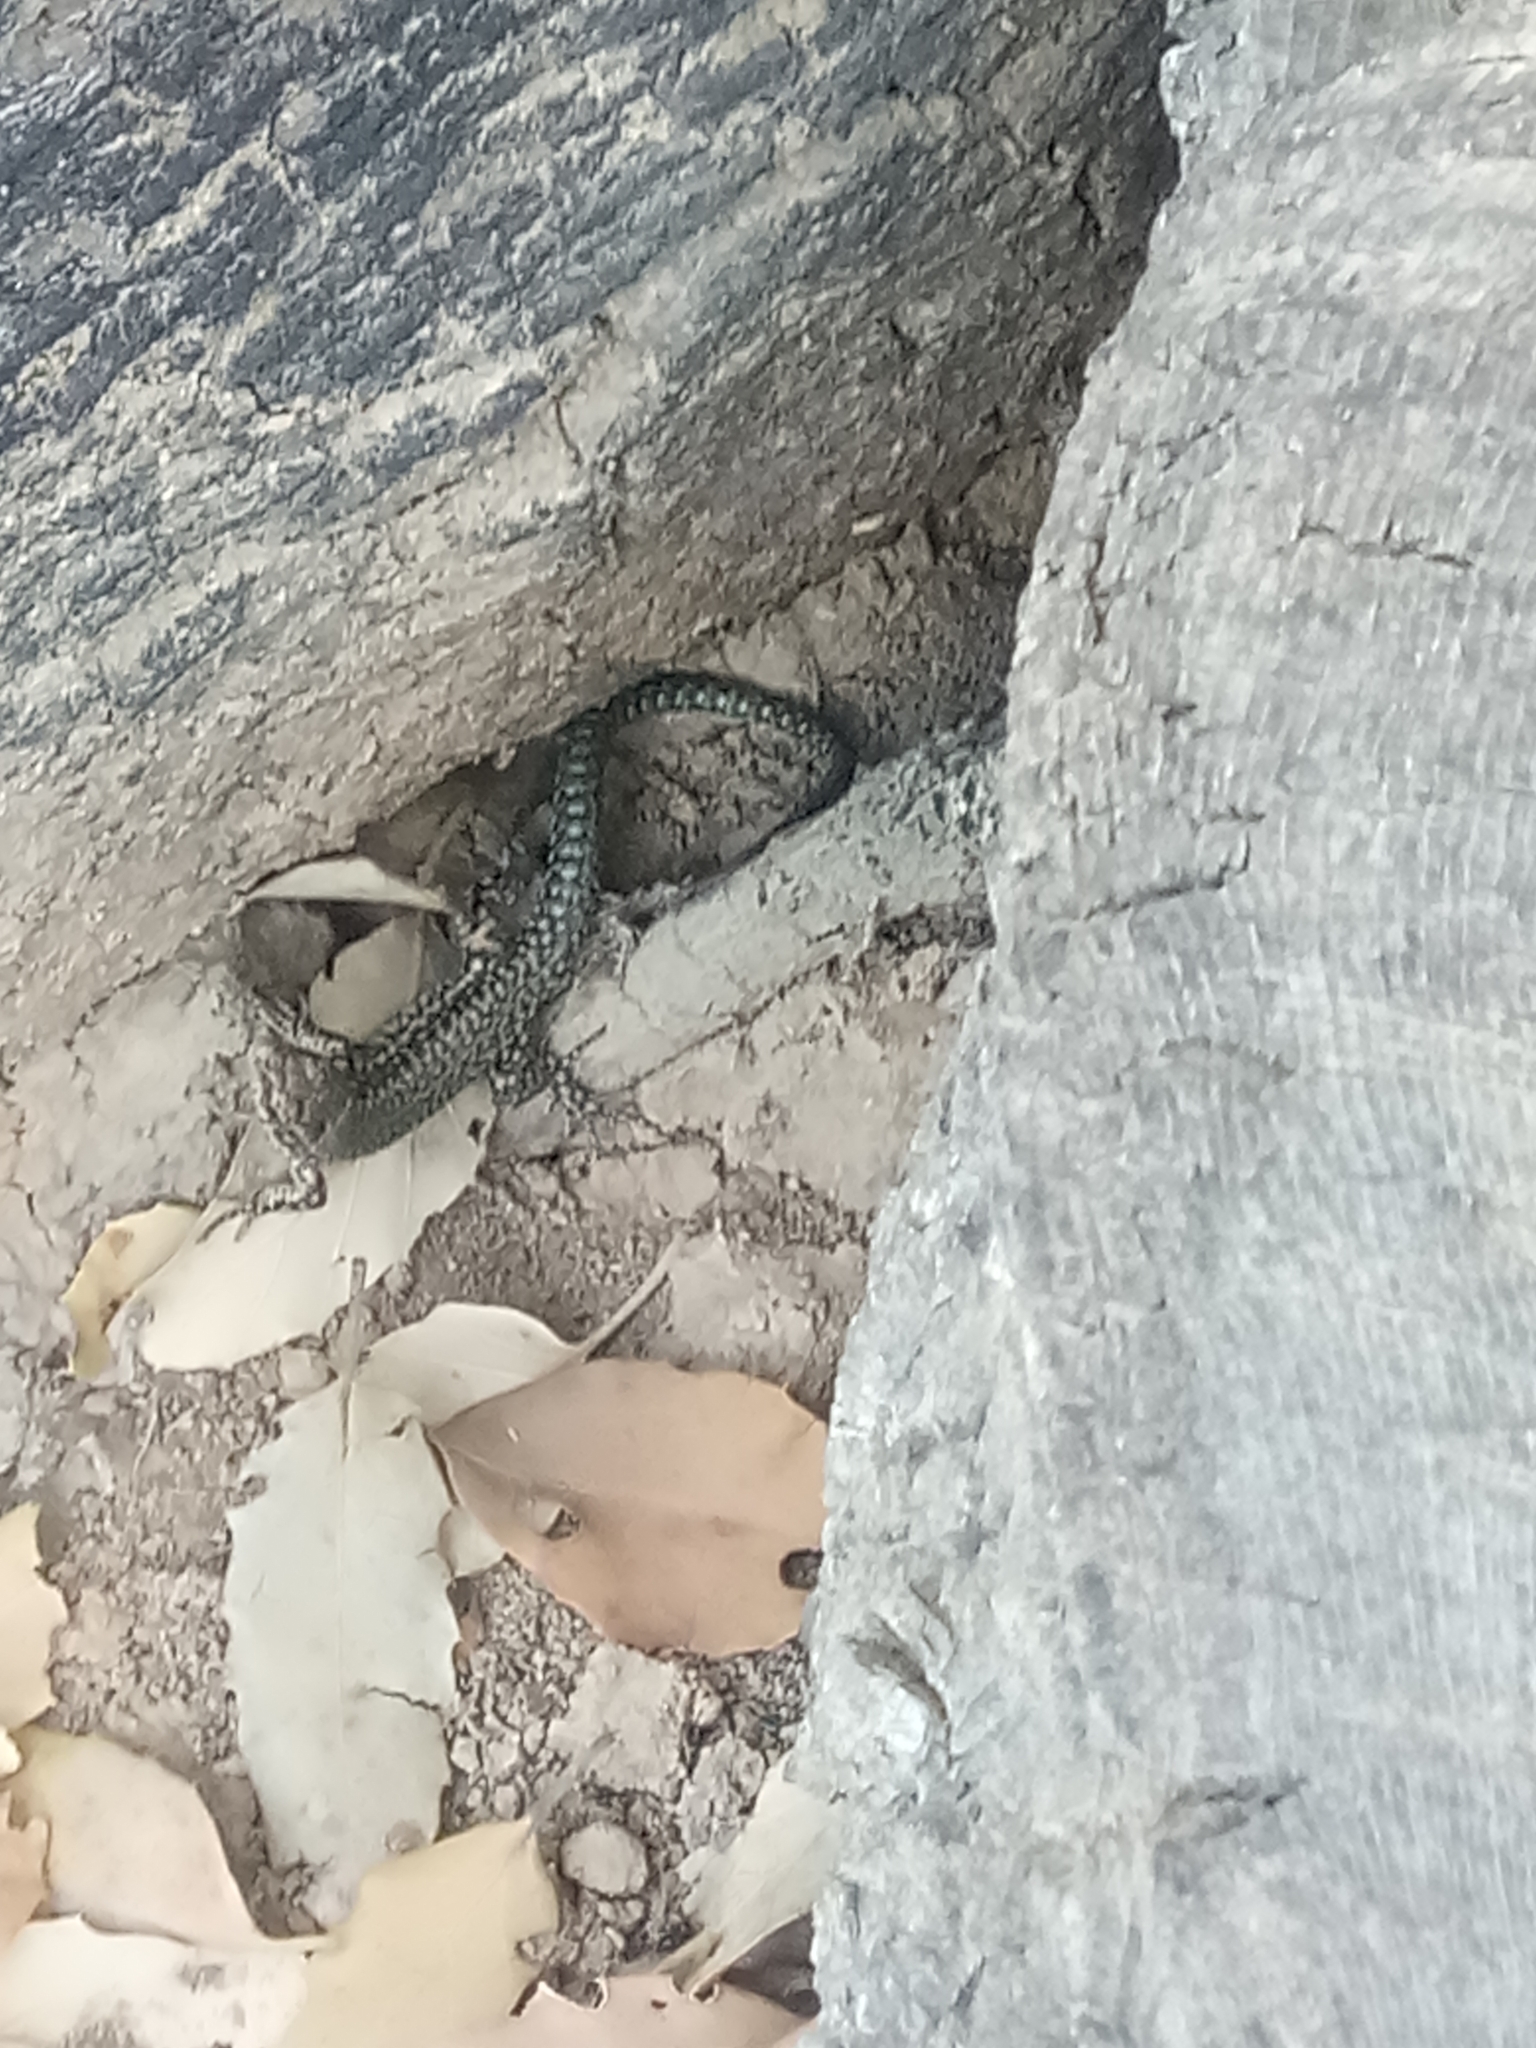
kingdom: Animalia
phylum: Chordata
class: Squamata
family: Lacertidae
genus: Podarcis
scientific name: Podarcis vaucheri
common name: Vaucher's wall lizard
